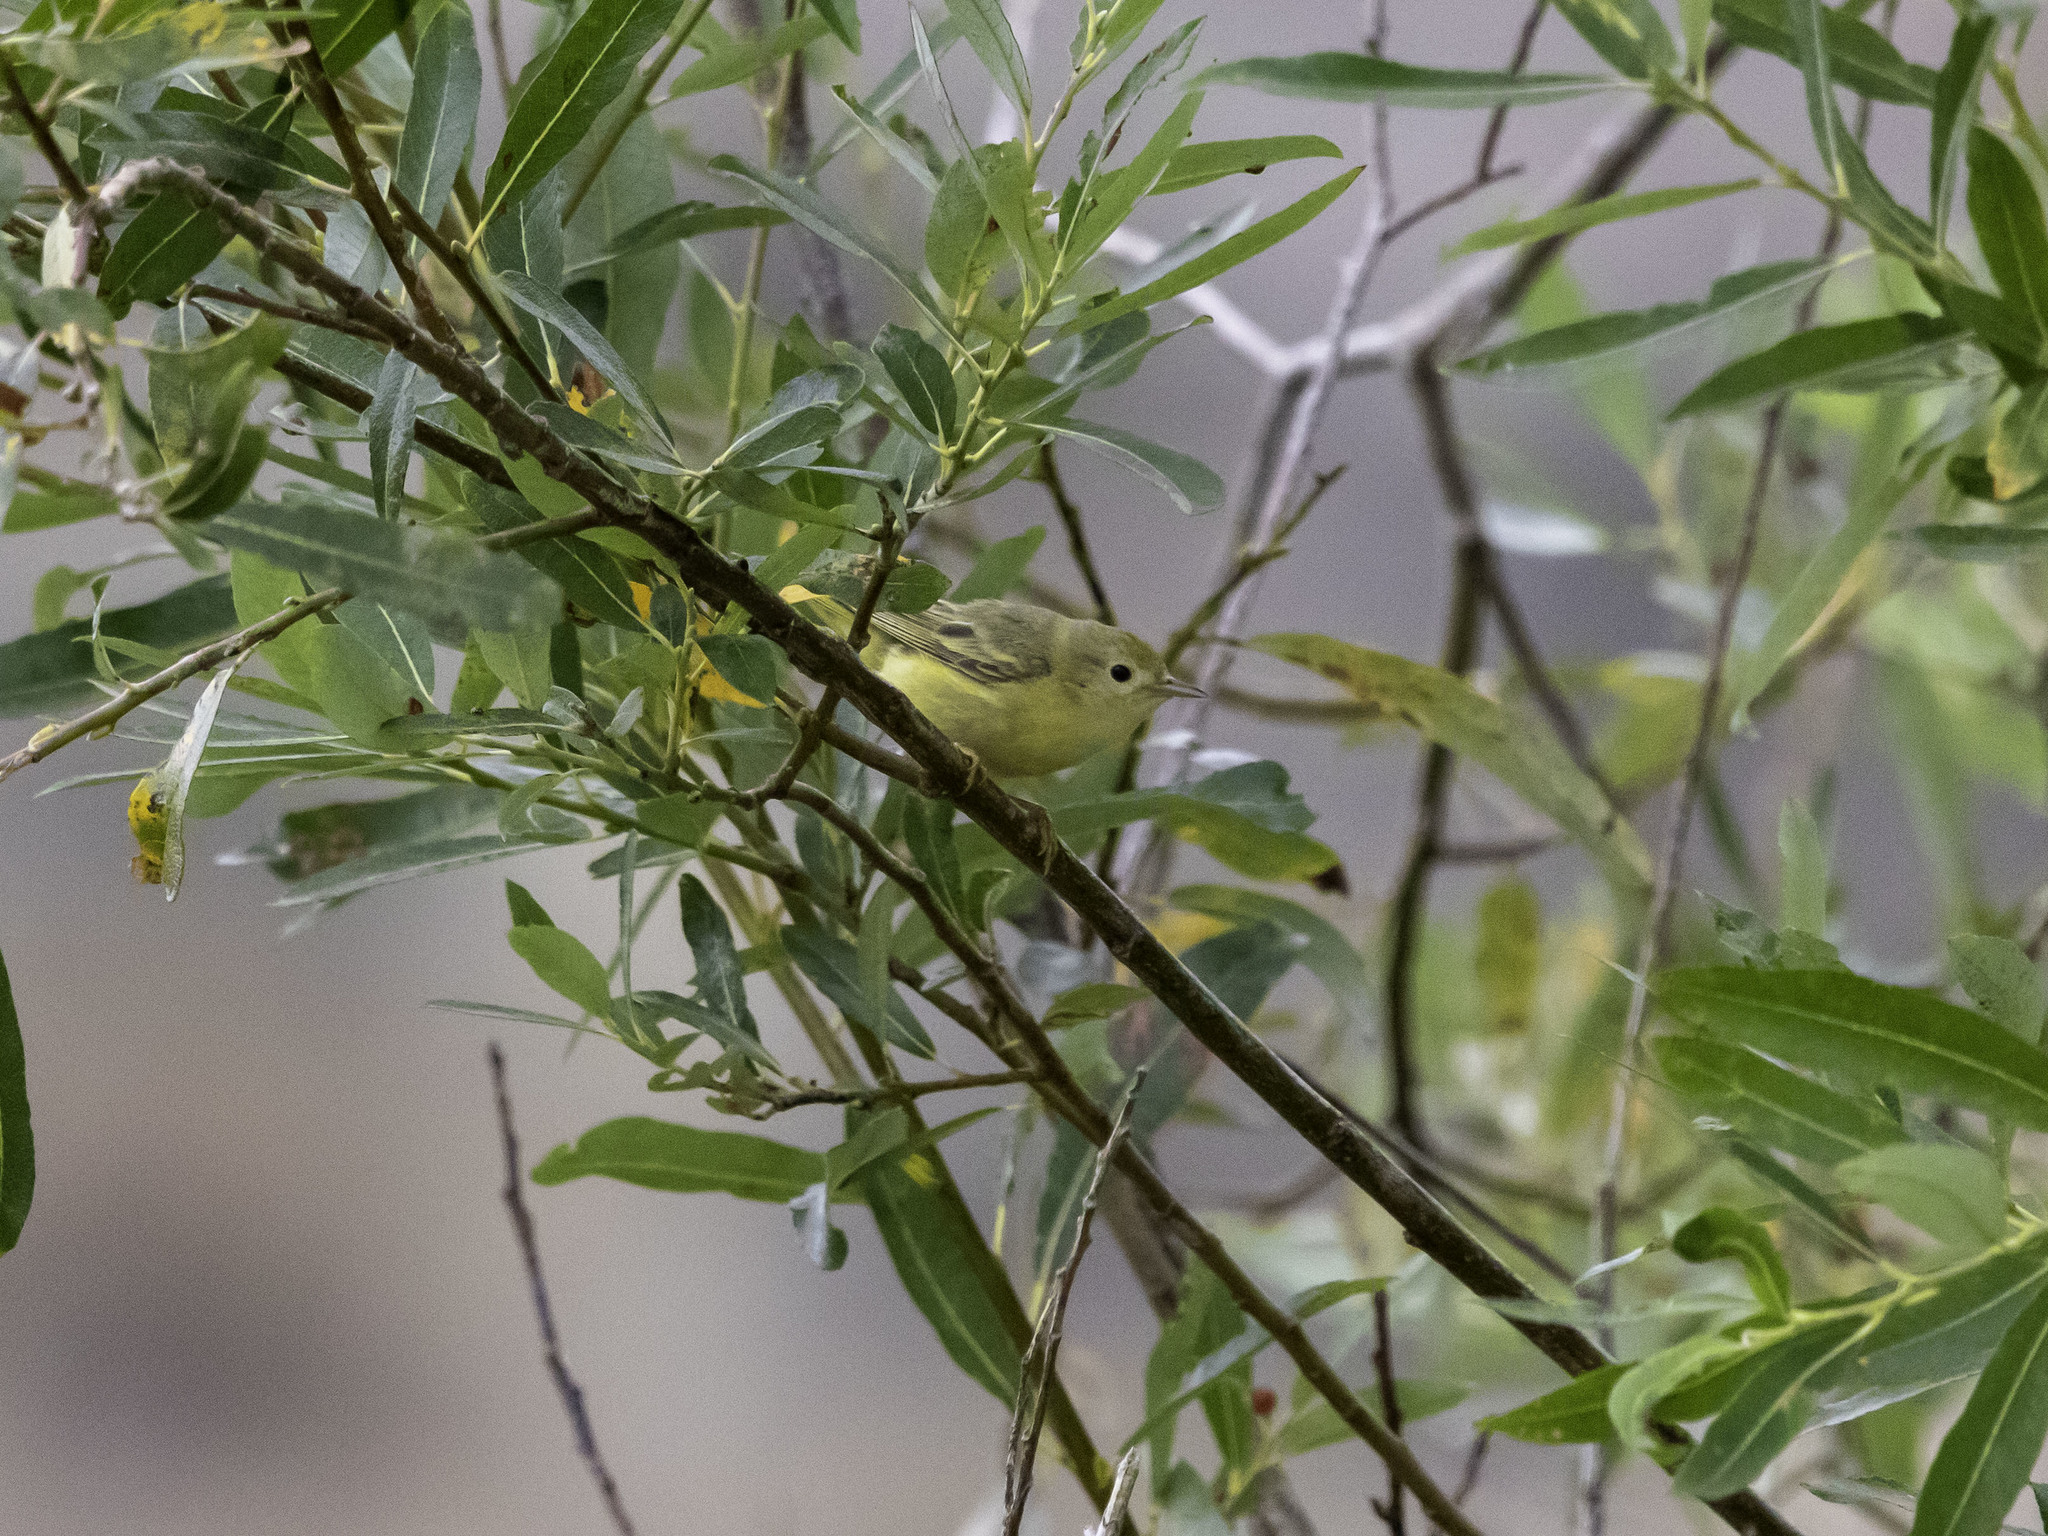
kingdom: Animalia
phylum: Chordata
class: Aves
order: Passeriformes
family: Parulidae
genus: Setophaga
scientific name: Setophaga petechia
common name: Yellow warbler
